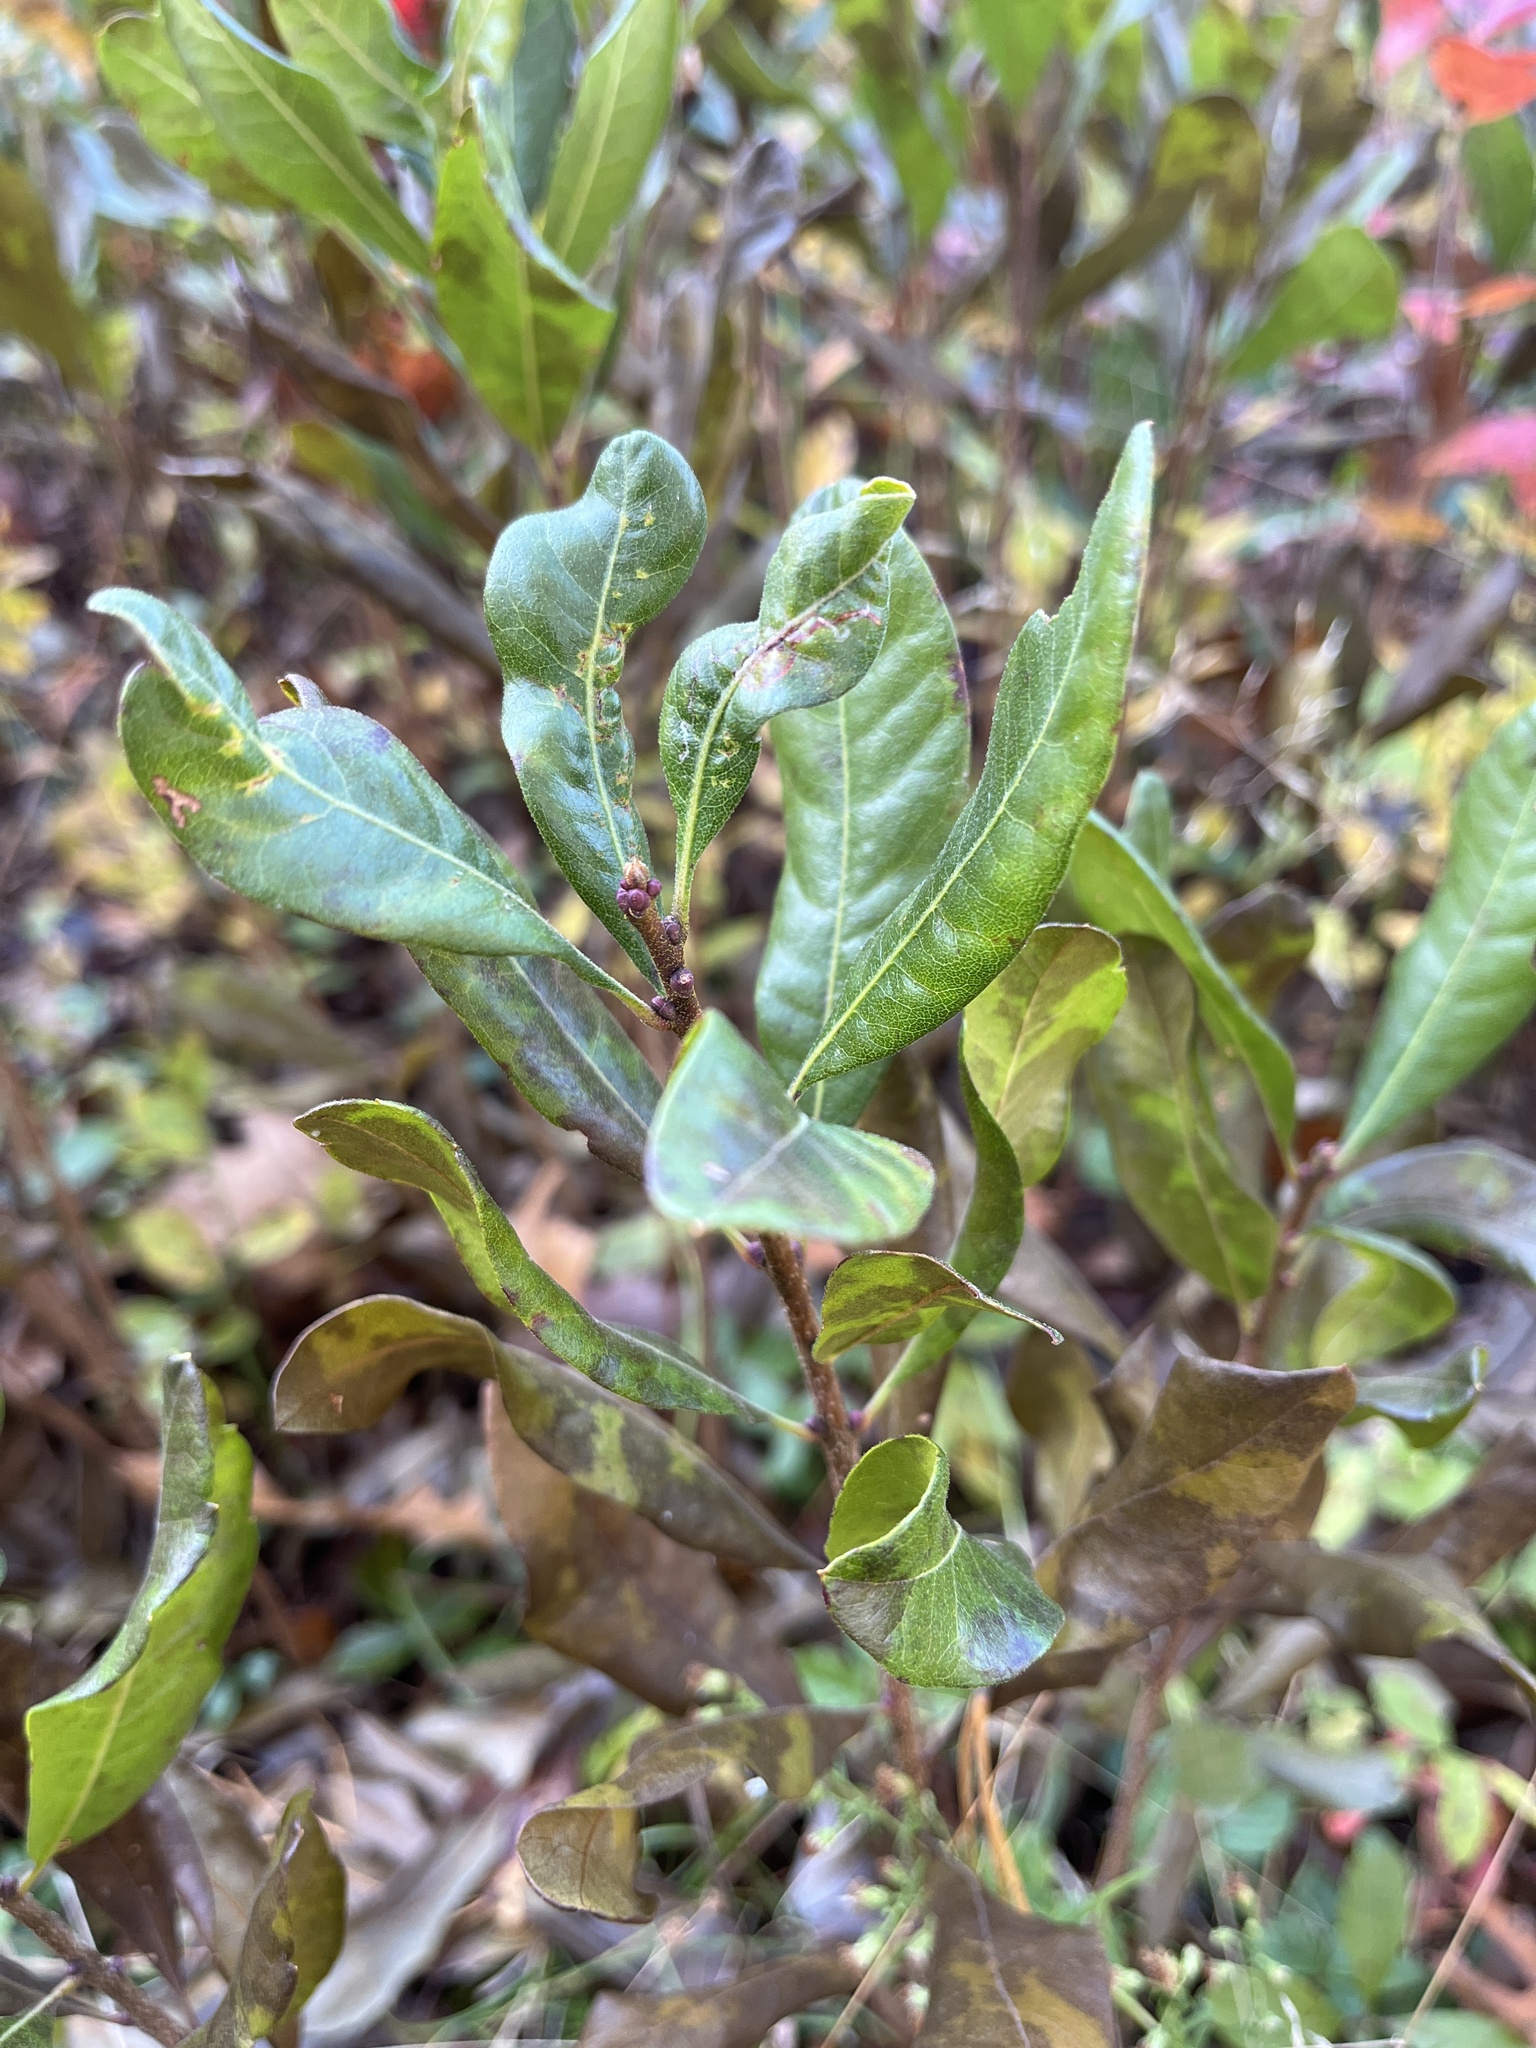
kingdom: Plantae
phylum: Tracheophyta
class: Magnoliopsida
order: Fagales
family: Myricaceae
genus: Morella
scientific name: Morella pensylvanica
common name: Northern bayberry
